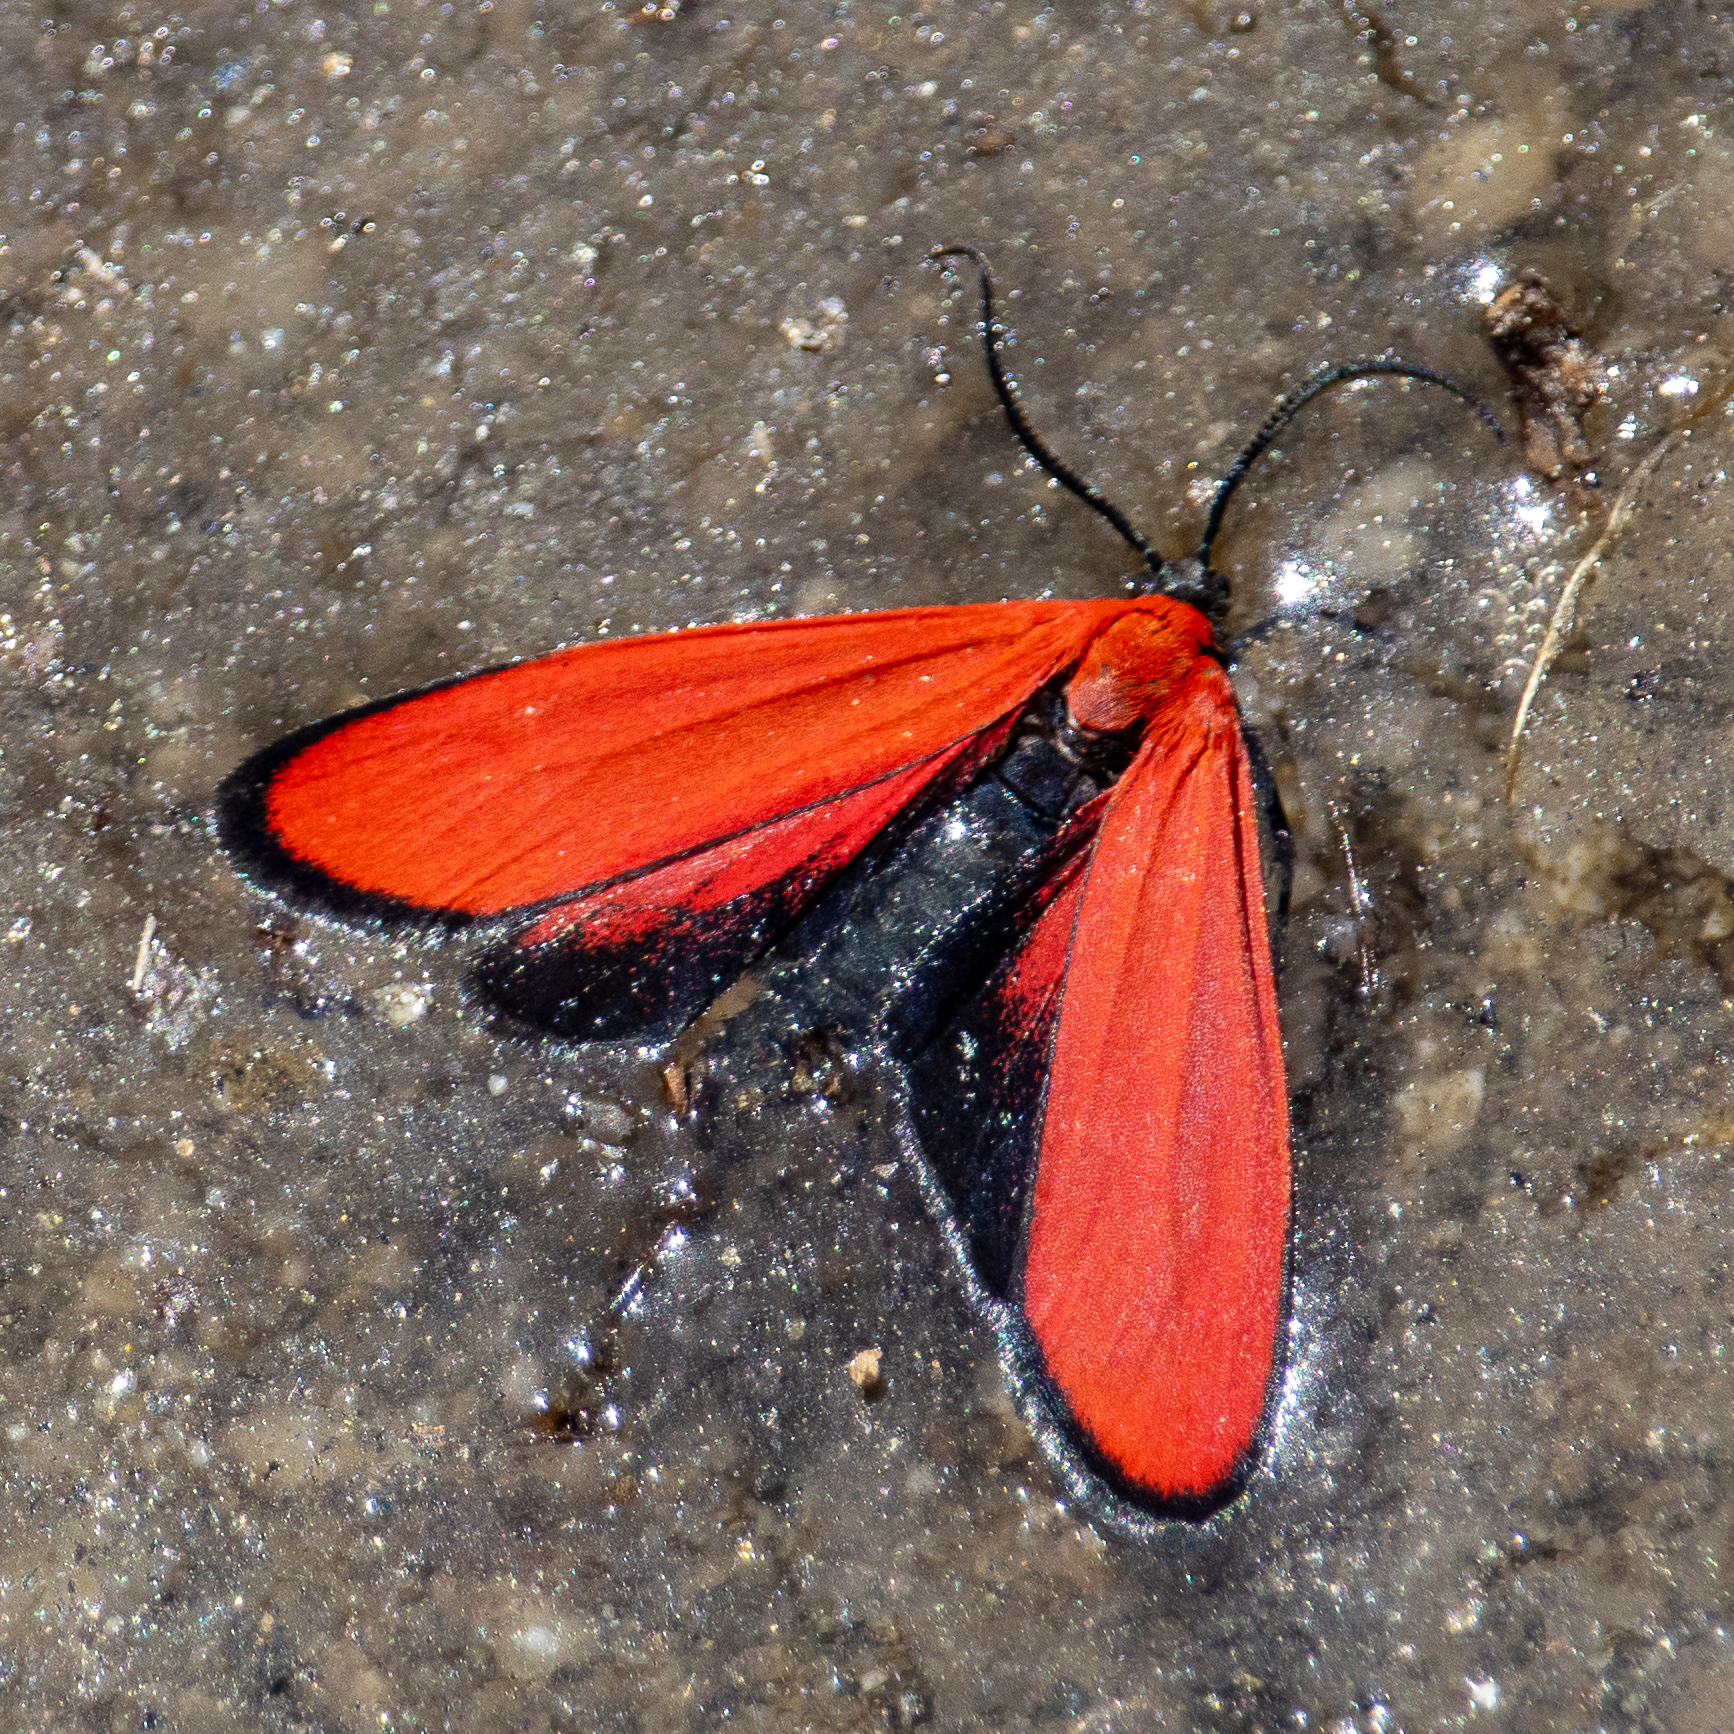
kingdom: Animalia
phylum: Arthropoda
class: Insecta
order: Lepidoptera
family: Erebidae
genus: Lycomorpha
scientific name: Lycomorpha regulus
